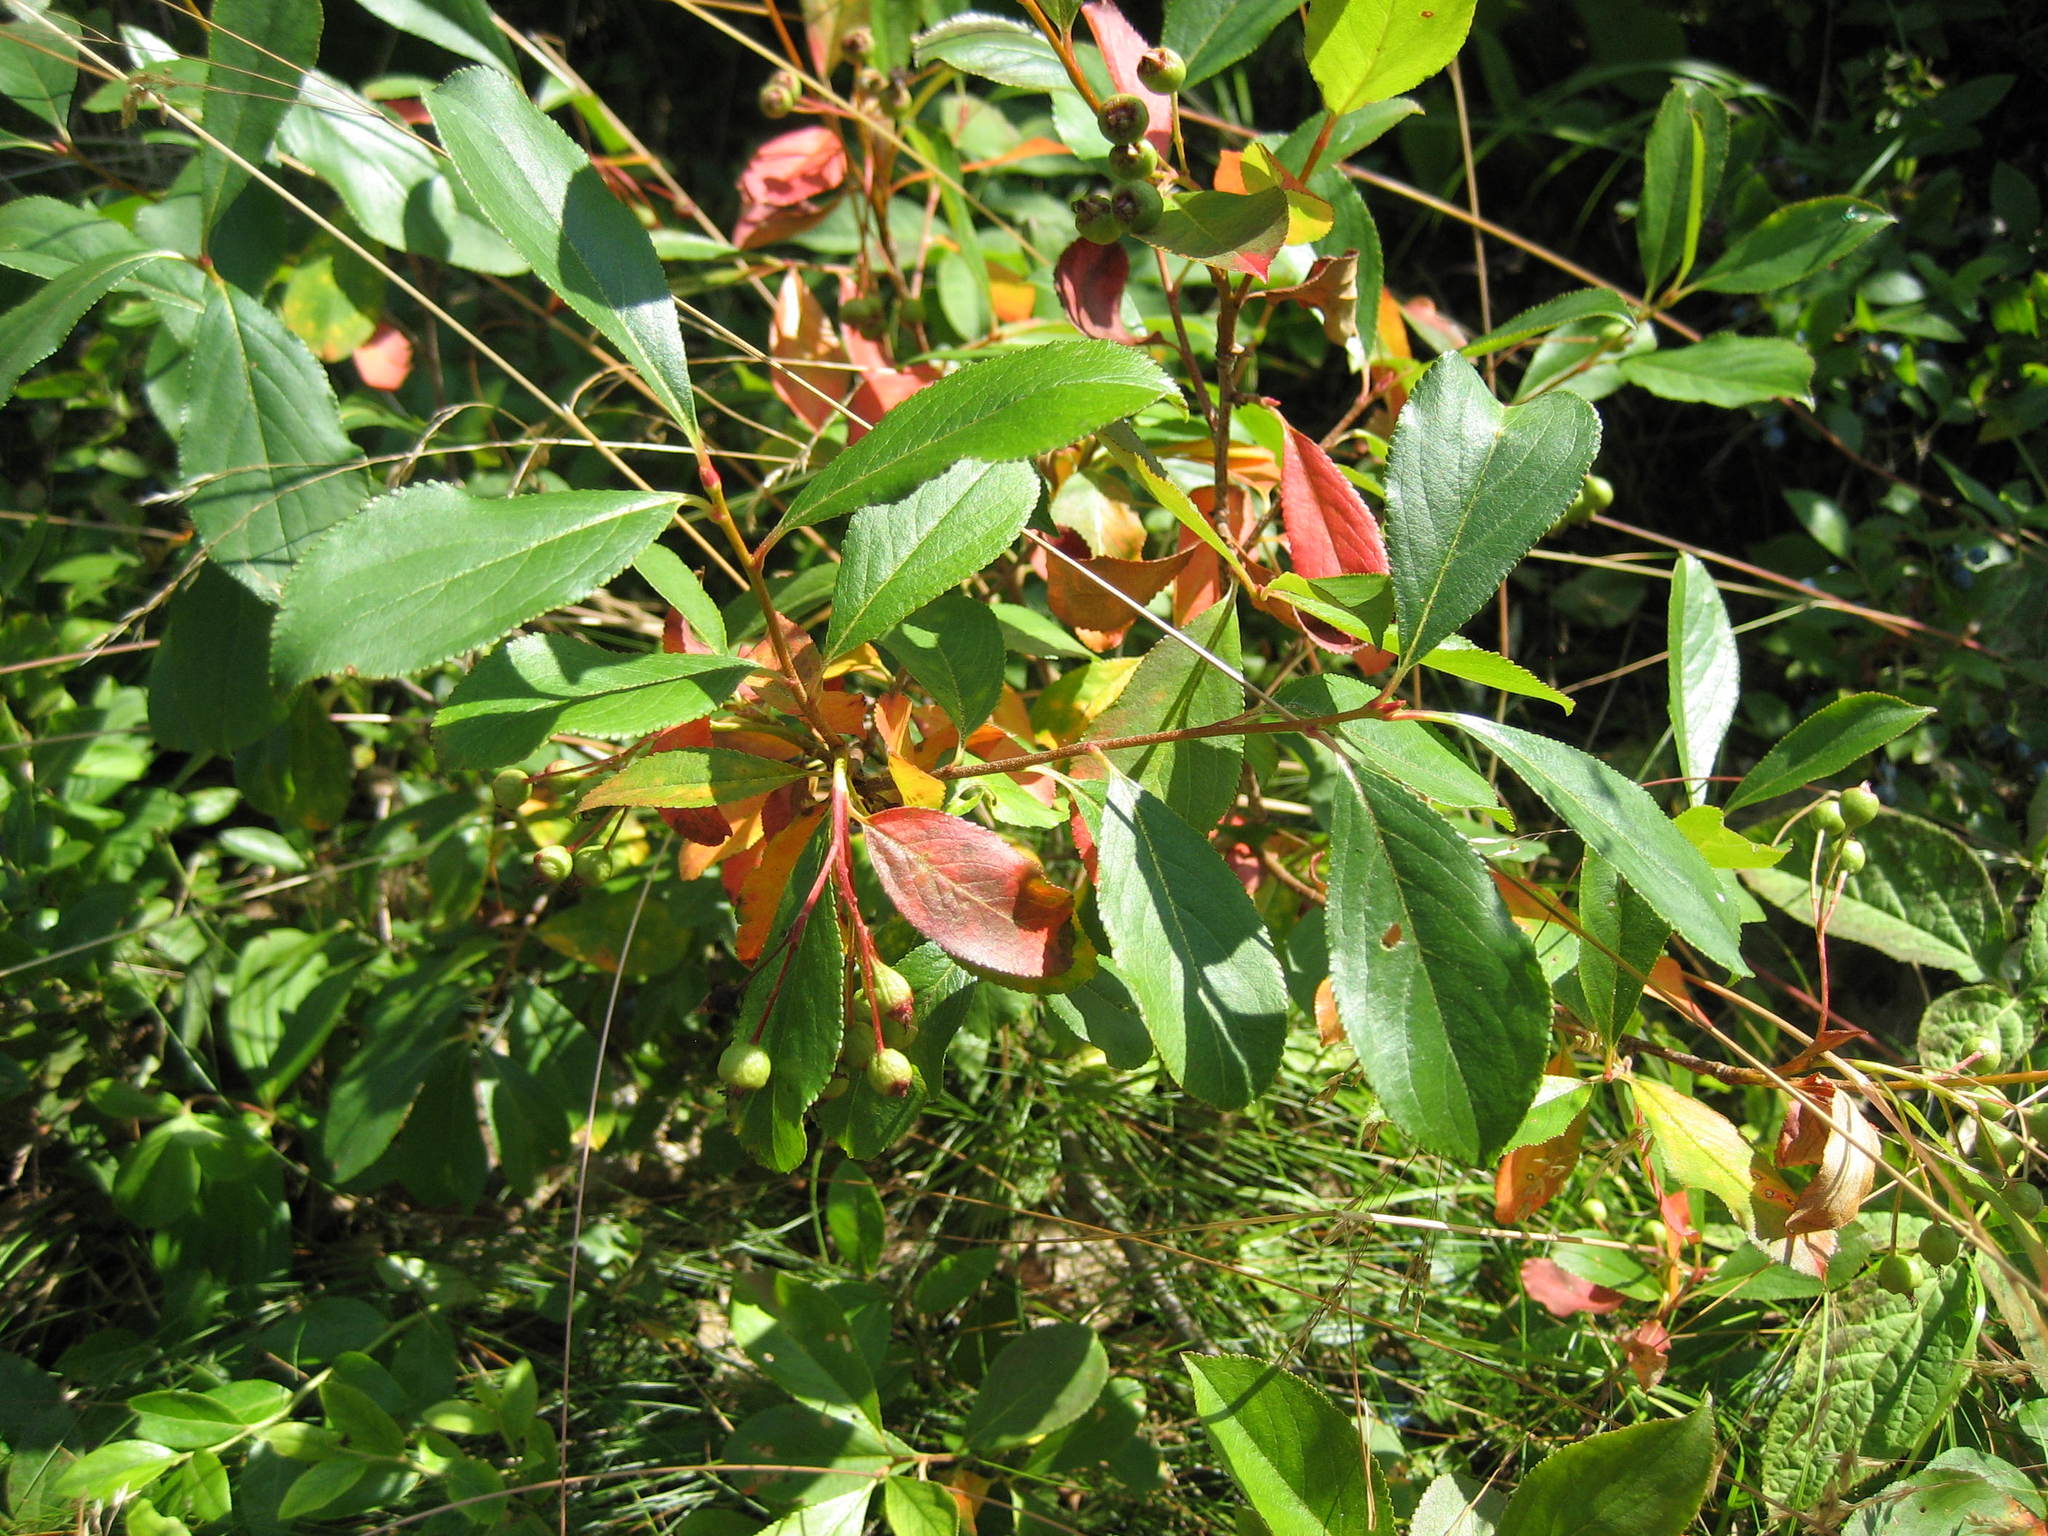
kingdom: Plantae
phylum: Tracheophyta
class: Magnoliopsida
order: Rosales
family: Rosaceae
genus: Aronia
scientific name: Aronia melanocarpa
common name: Black chokeberry
